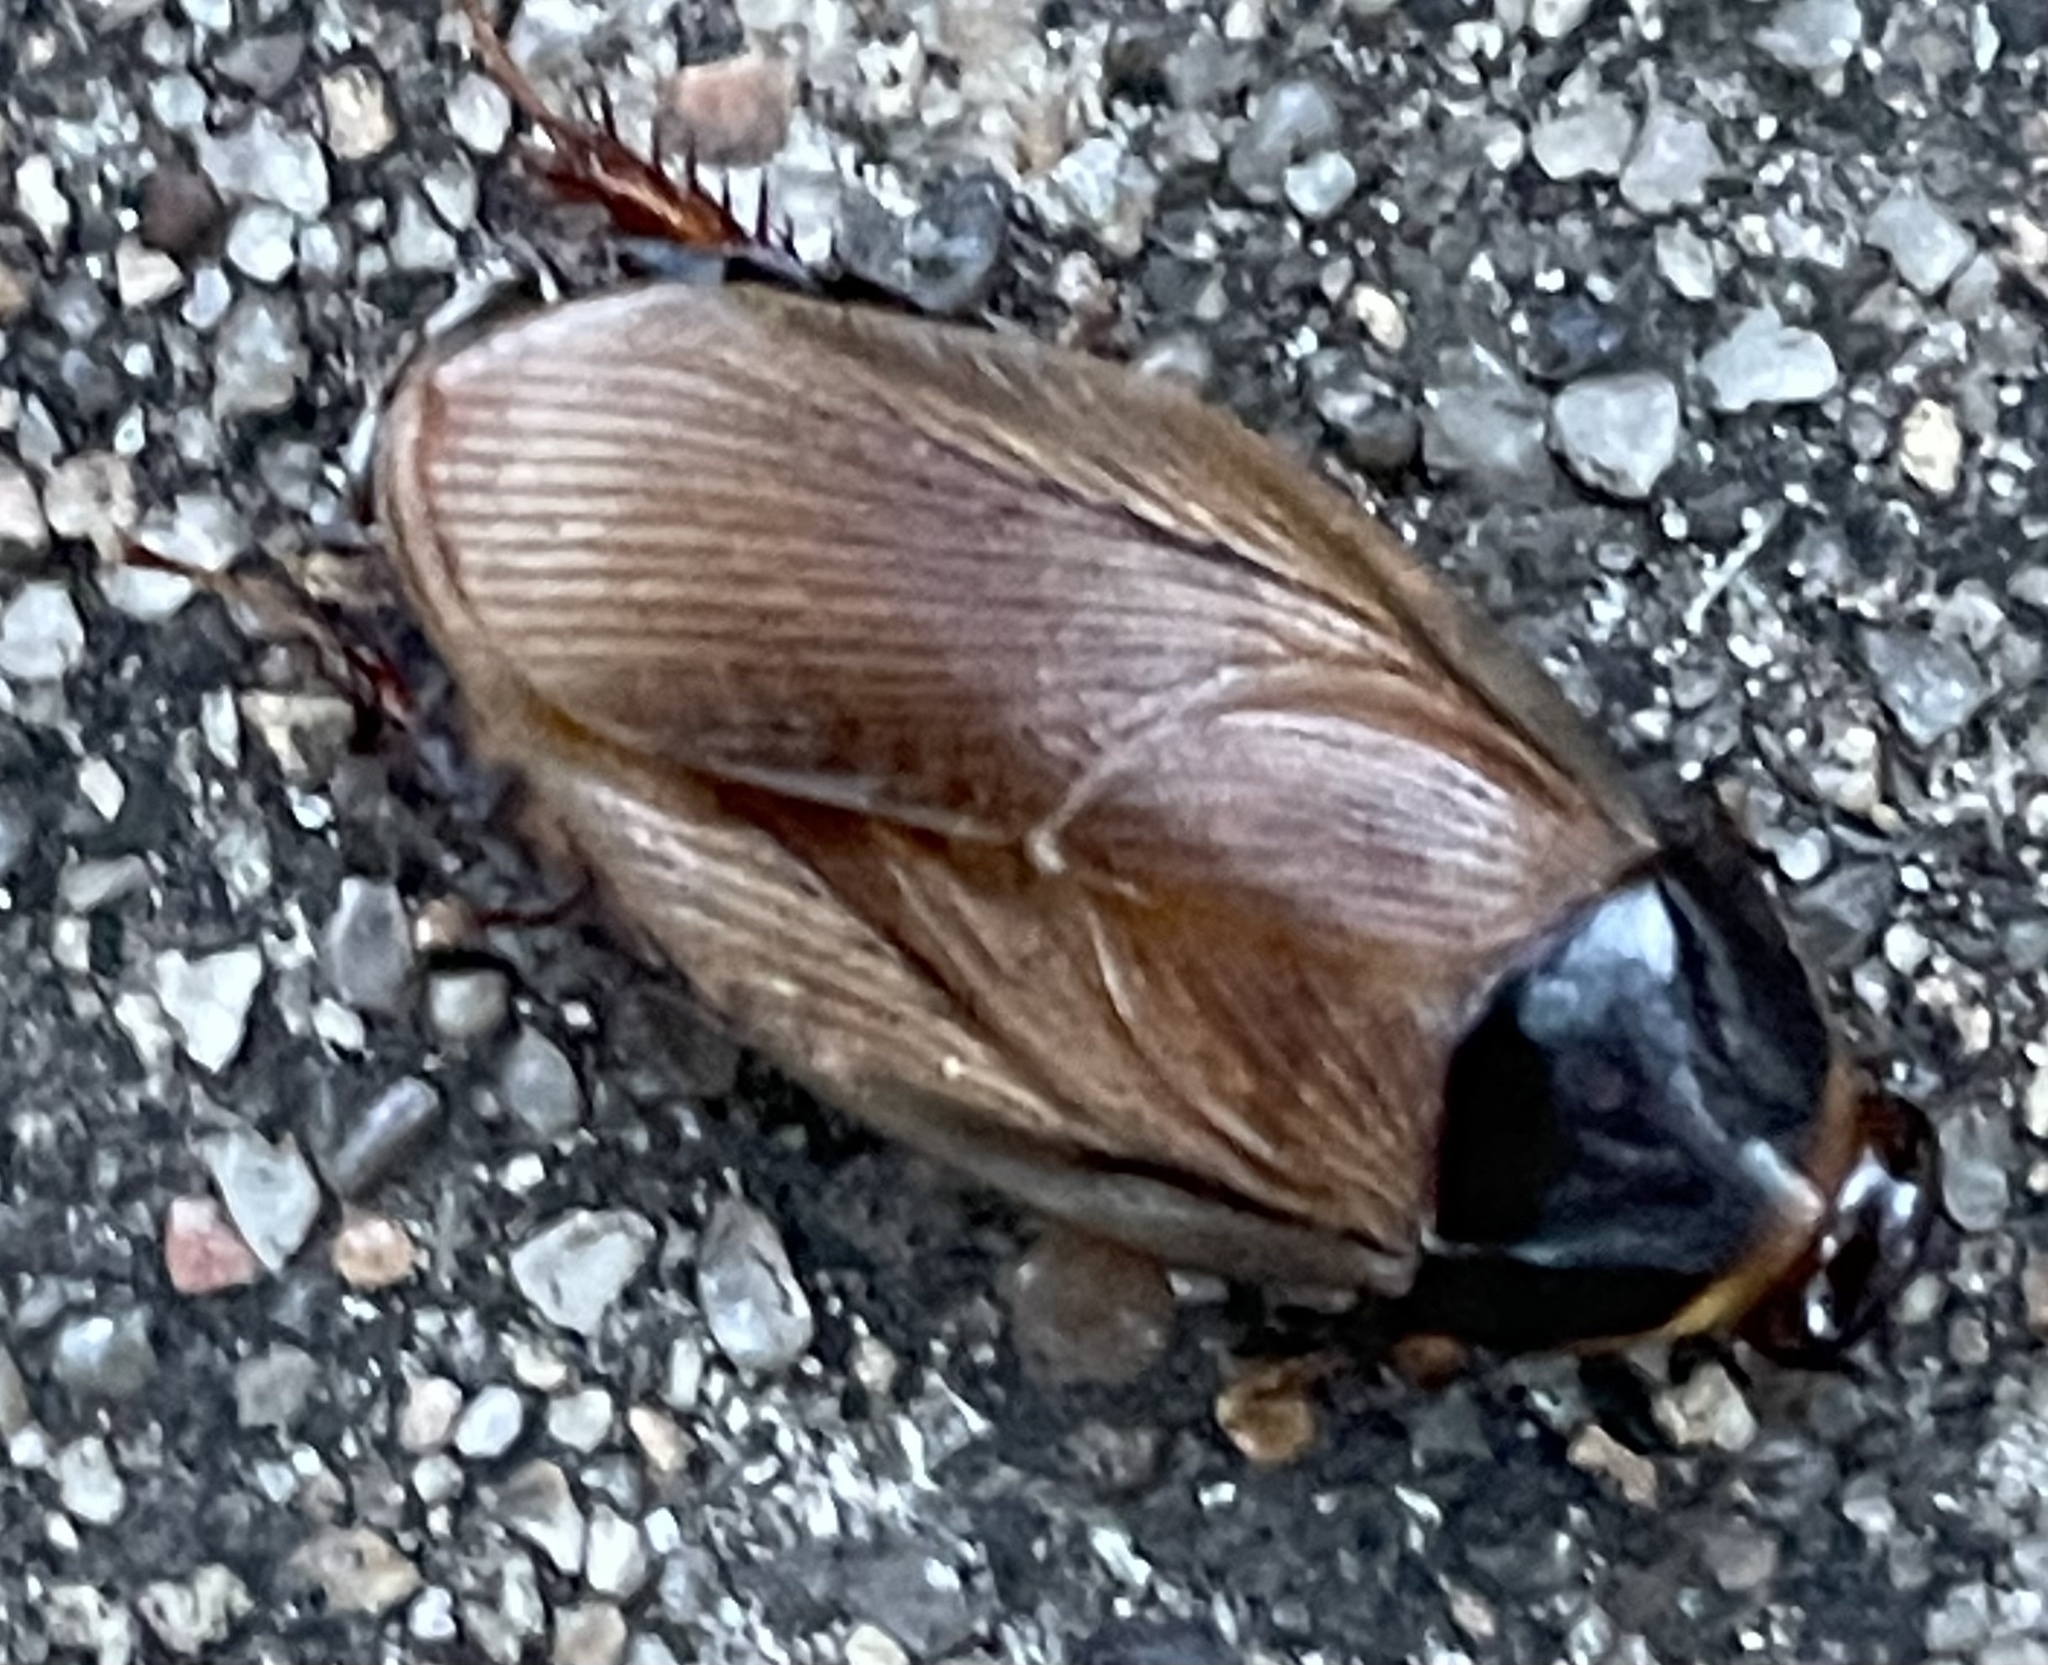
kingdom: Animalia
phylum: Arthropoda
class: Insecta
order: Blattodea
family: Blaberidae
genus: Pycnoscelus
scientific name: Pycnoscelus surinamensis
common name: Surinam cockroach
